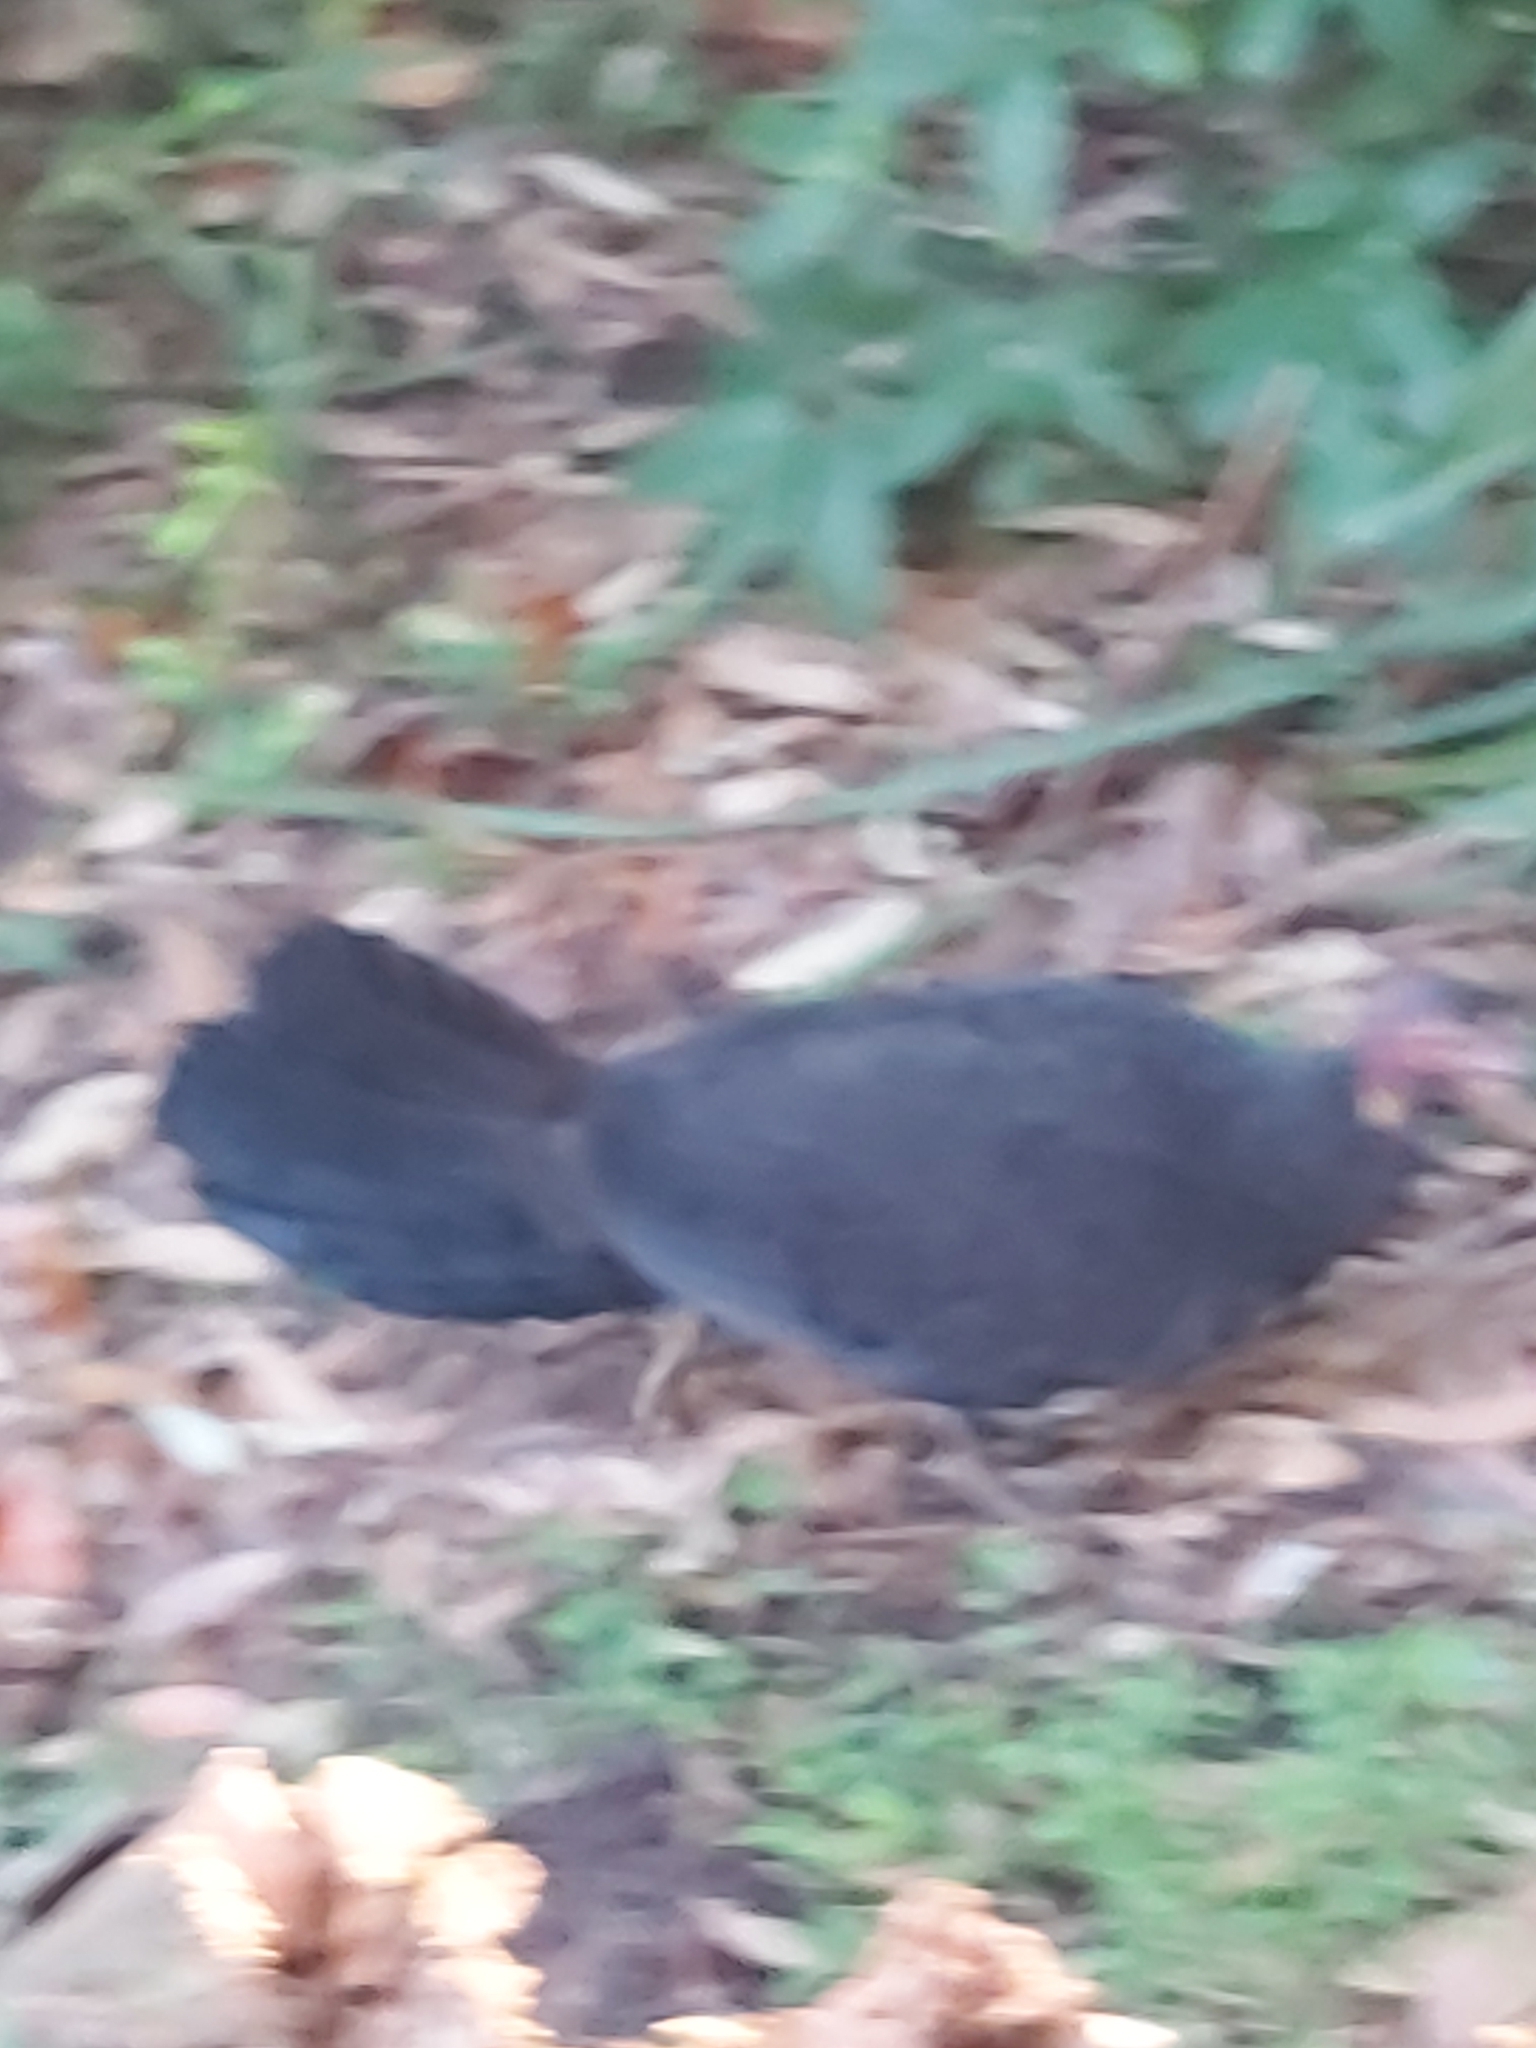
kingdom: Animalia
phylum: Chordata
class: Aves
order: Galliformes
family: Megapodiidae
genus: Alectura
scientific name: Alectura lathami
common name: Australian brushturkey
